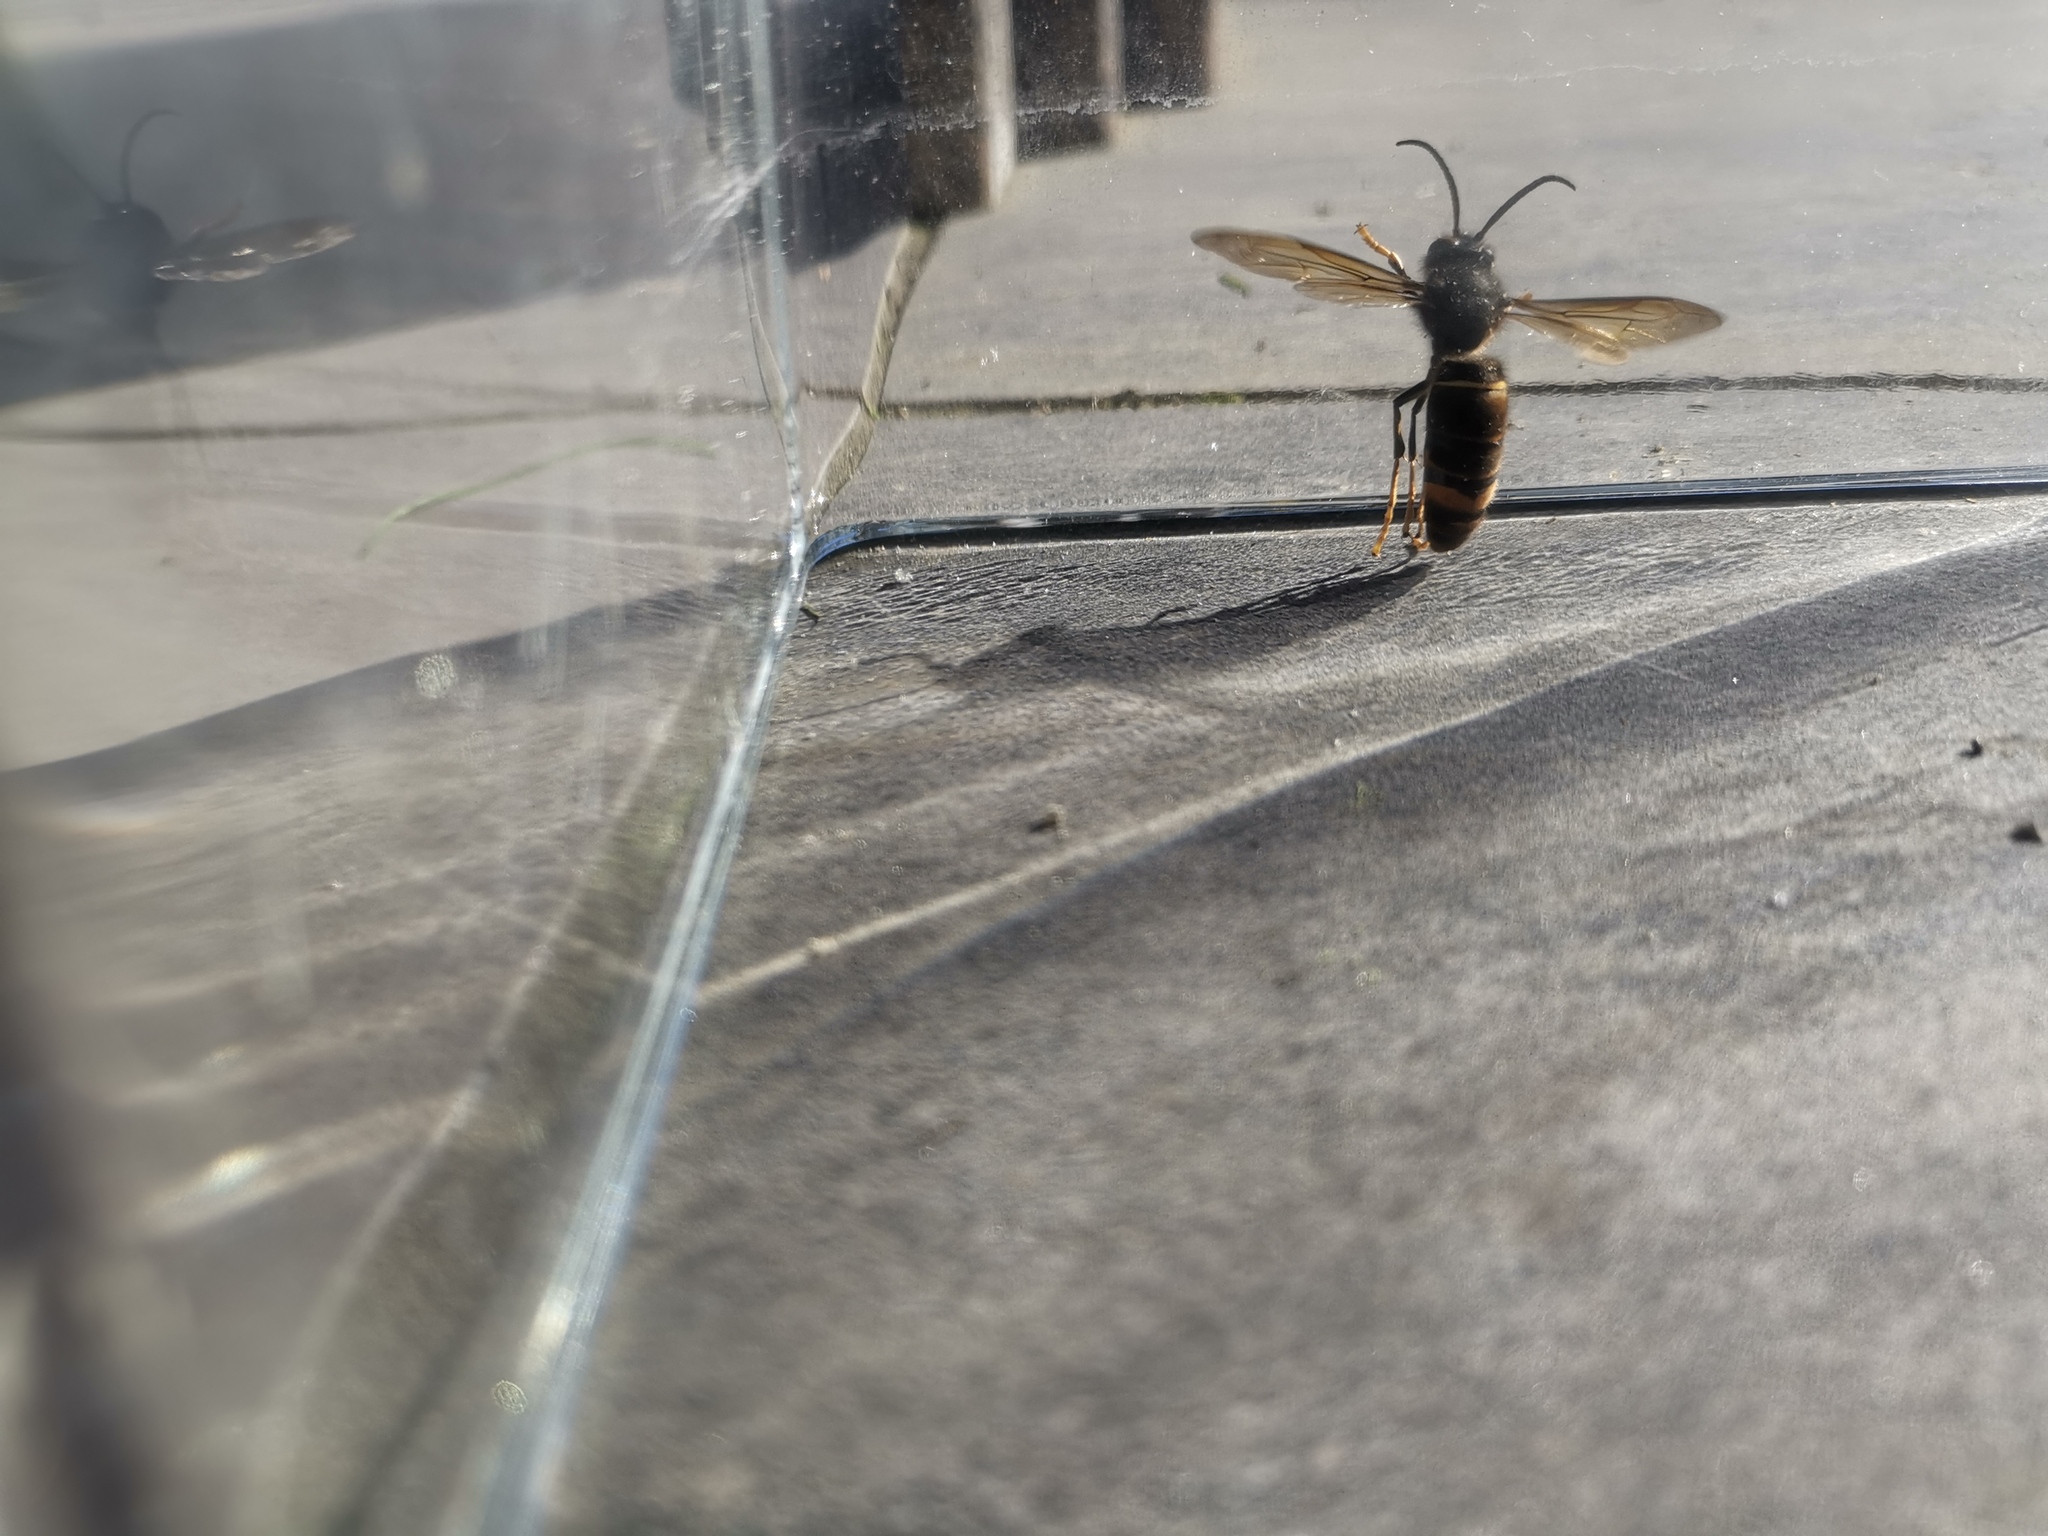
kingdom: Animalia
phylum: Arthropoda
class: Insecta
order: Hymenoptera
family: Vespidae
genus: Vespa
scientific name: Vespa velutina
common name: Asian hornet
